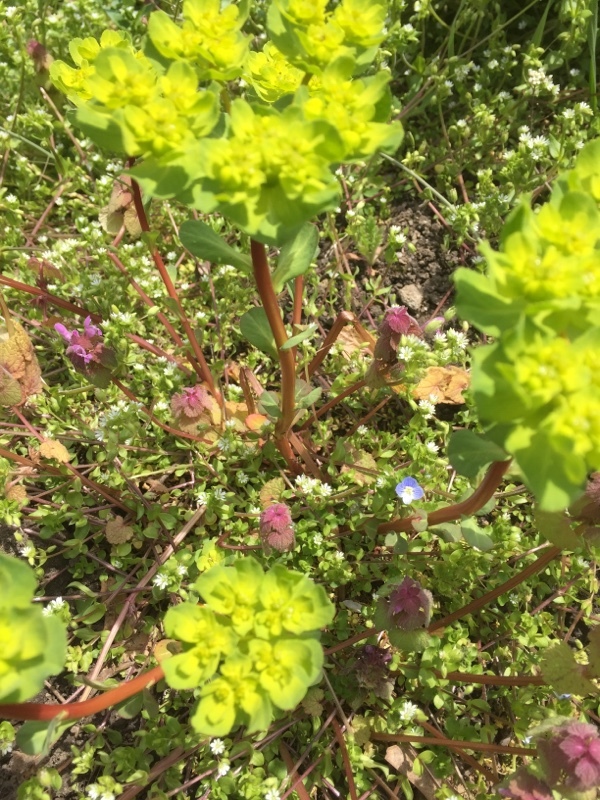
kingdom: Plantae
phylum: Tracheophyta
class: Magnoliopsida
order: Malpighiales
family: Euphorbiaceae
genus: Euphorbia
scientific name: Euphorbia helioscopia
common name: Sun spurge
